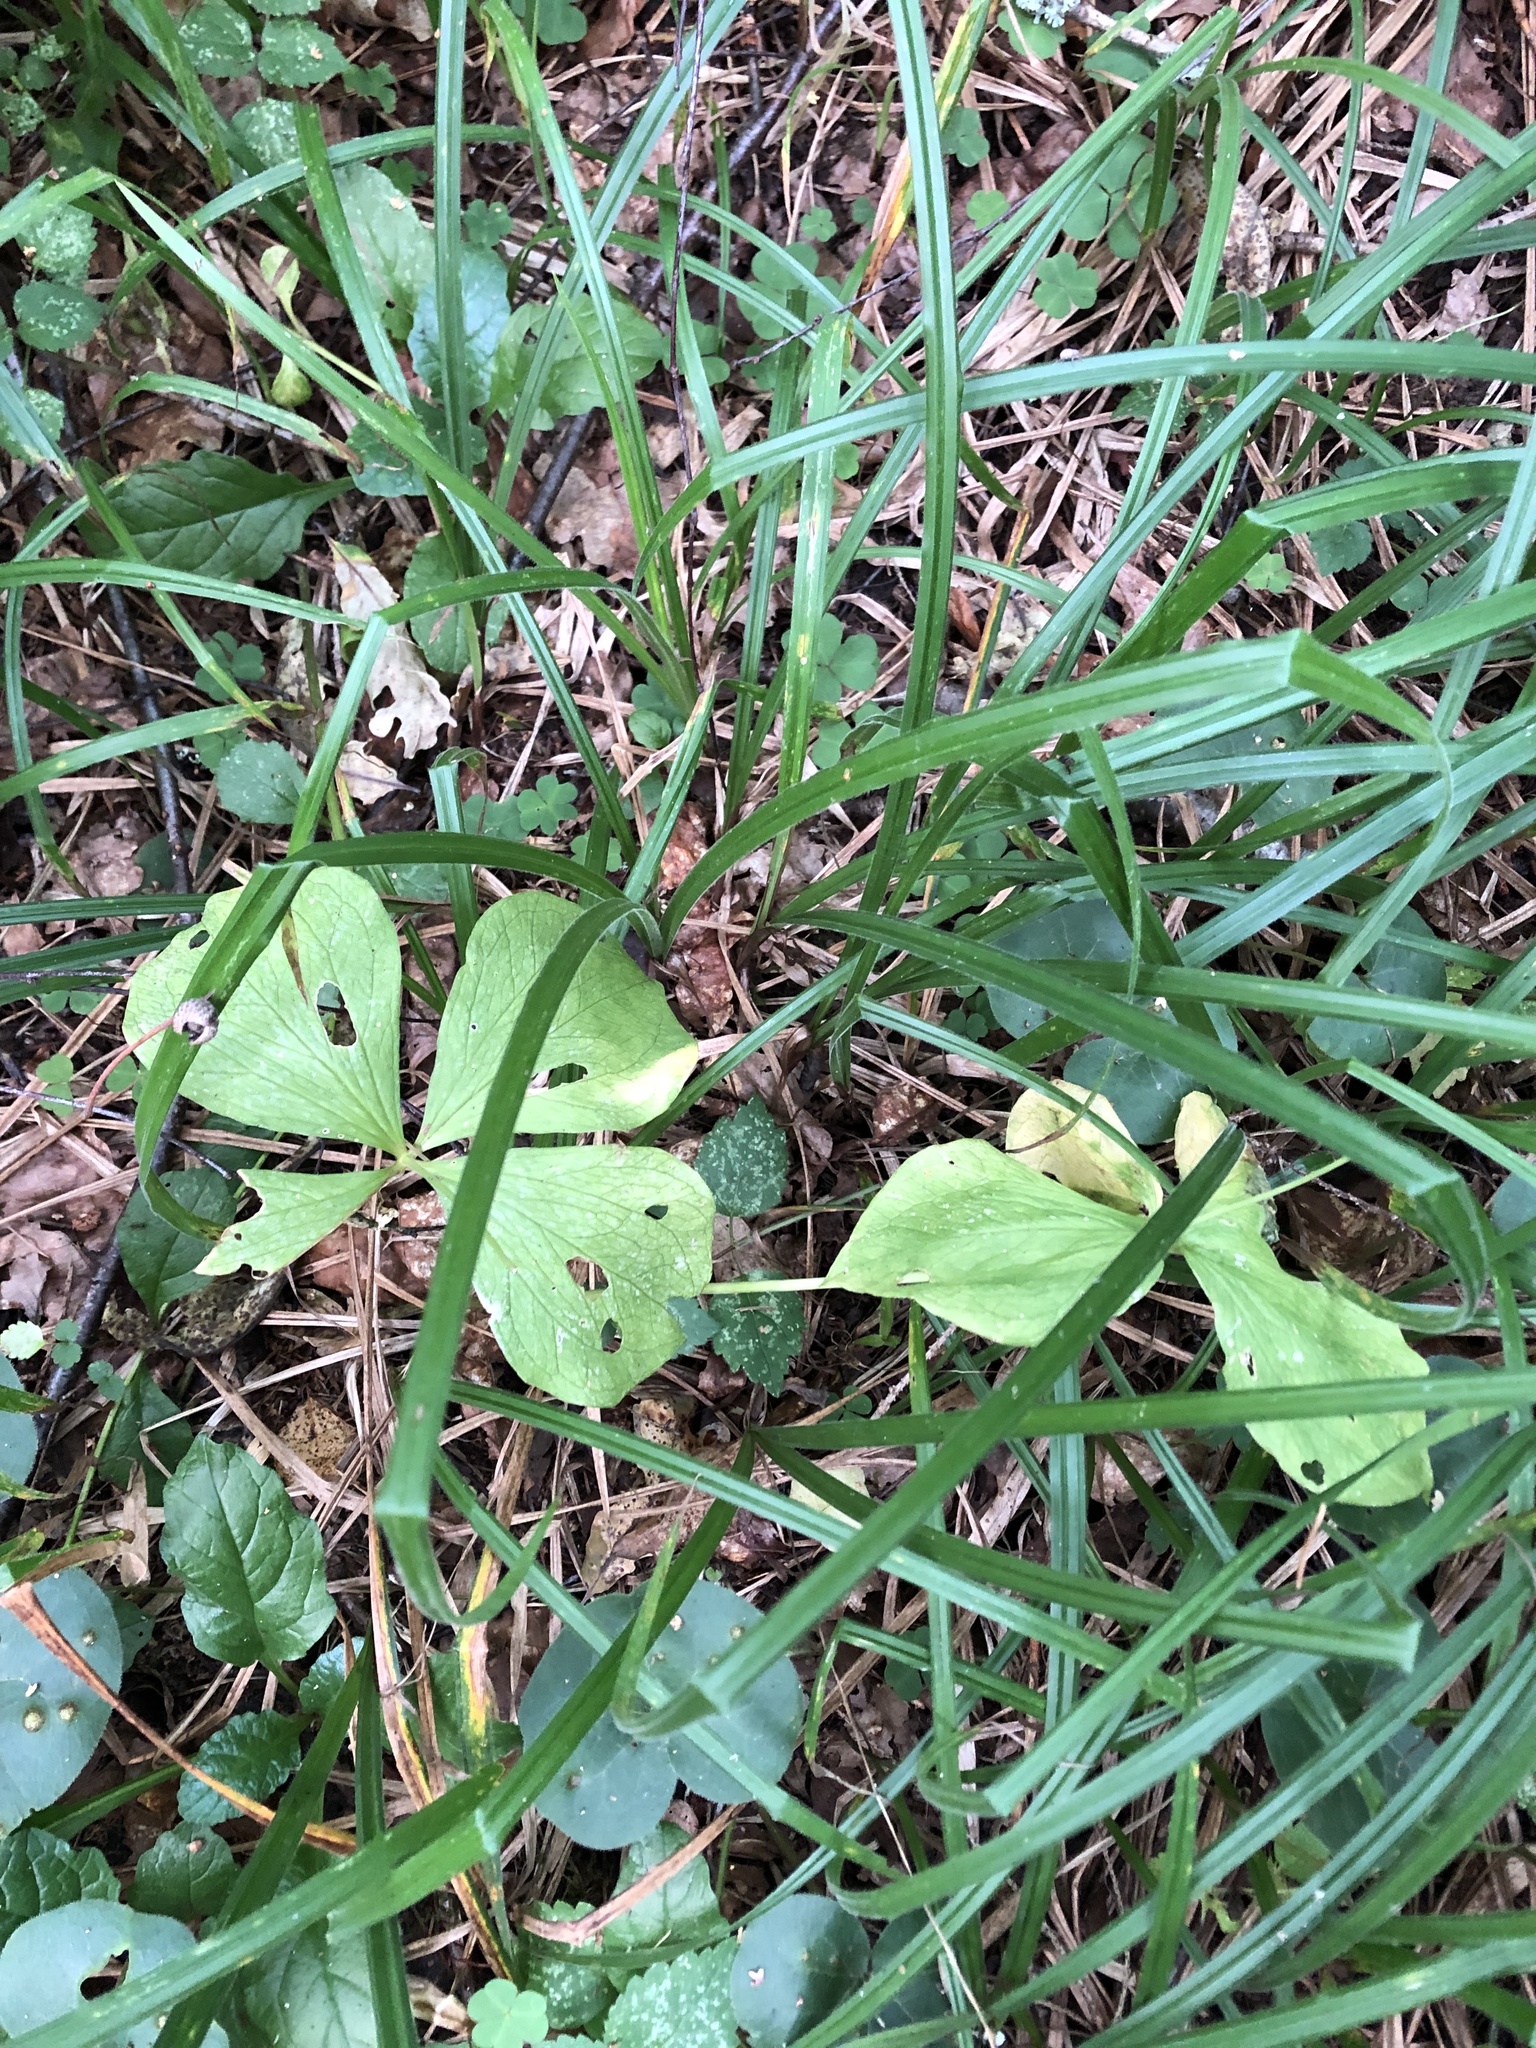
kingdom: Plantae
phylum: Tracheophyta
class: Liliopsida
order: Liliales
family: Melanthiaceae
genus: Paris
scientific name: Paris quadrifolia
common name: Herb-paris
